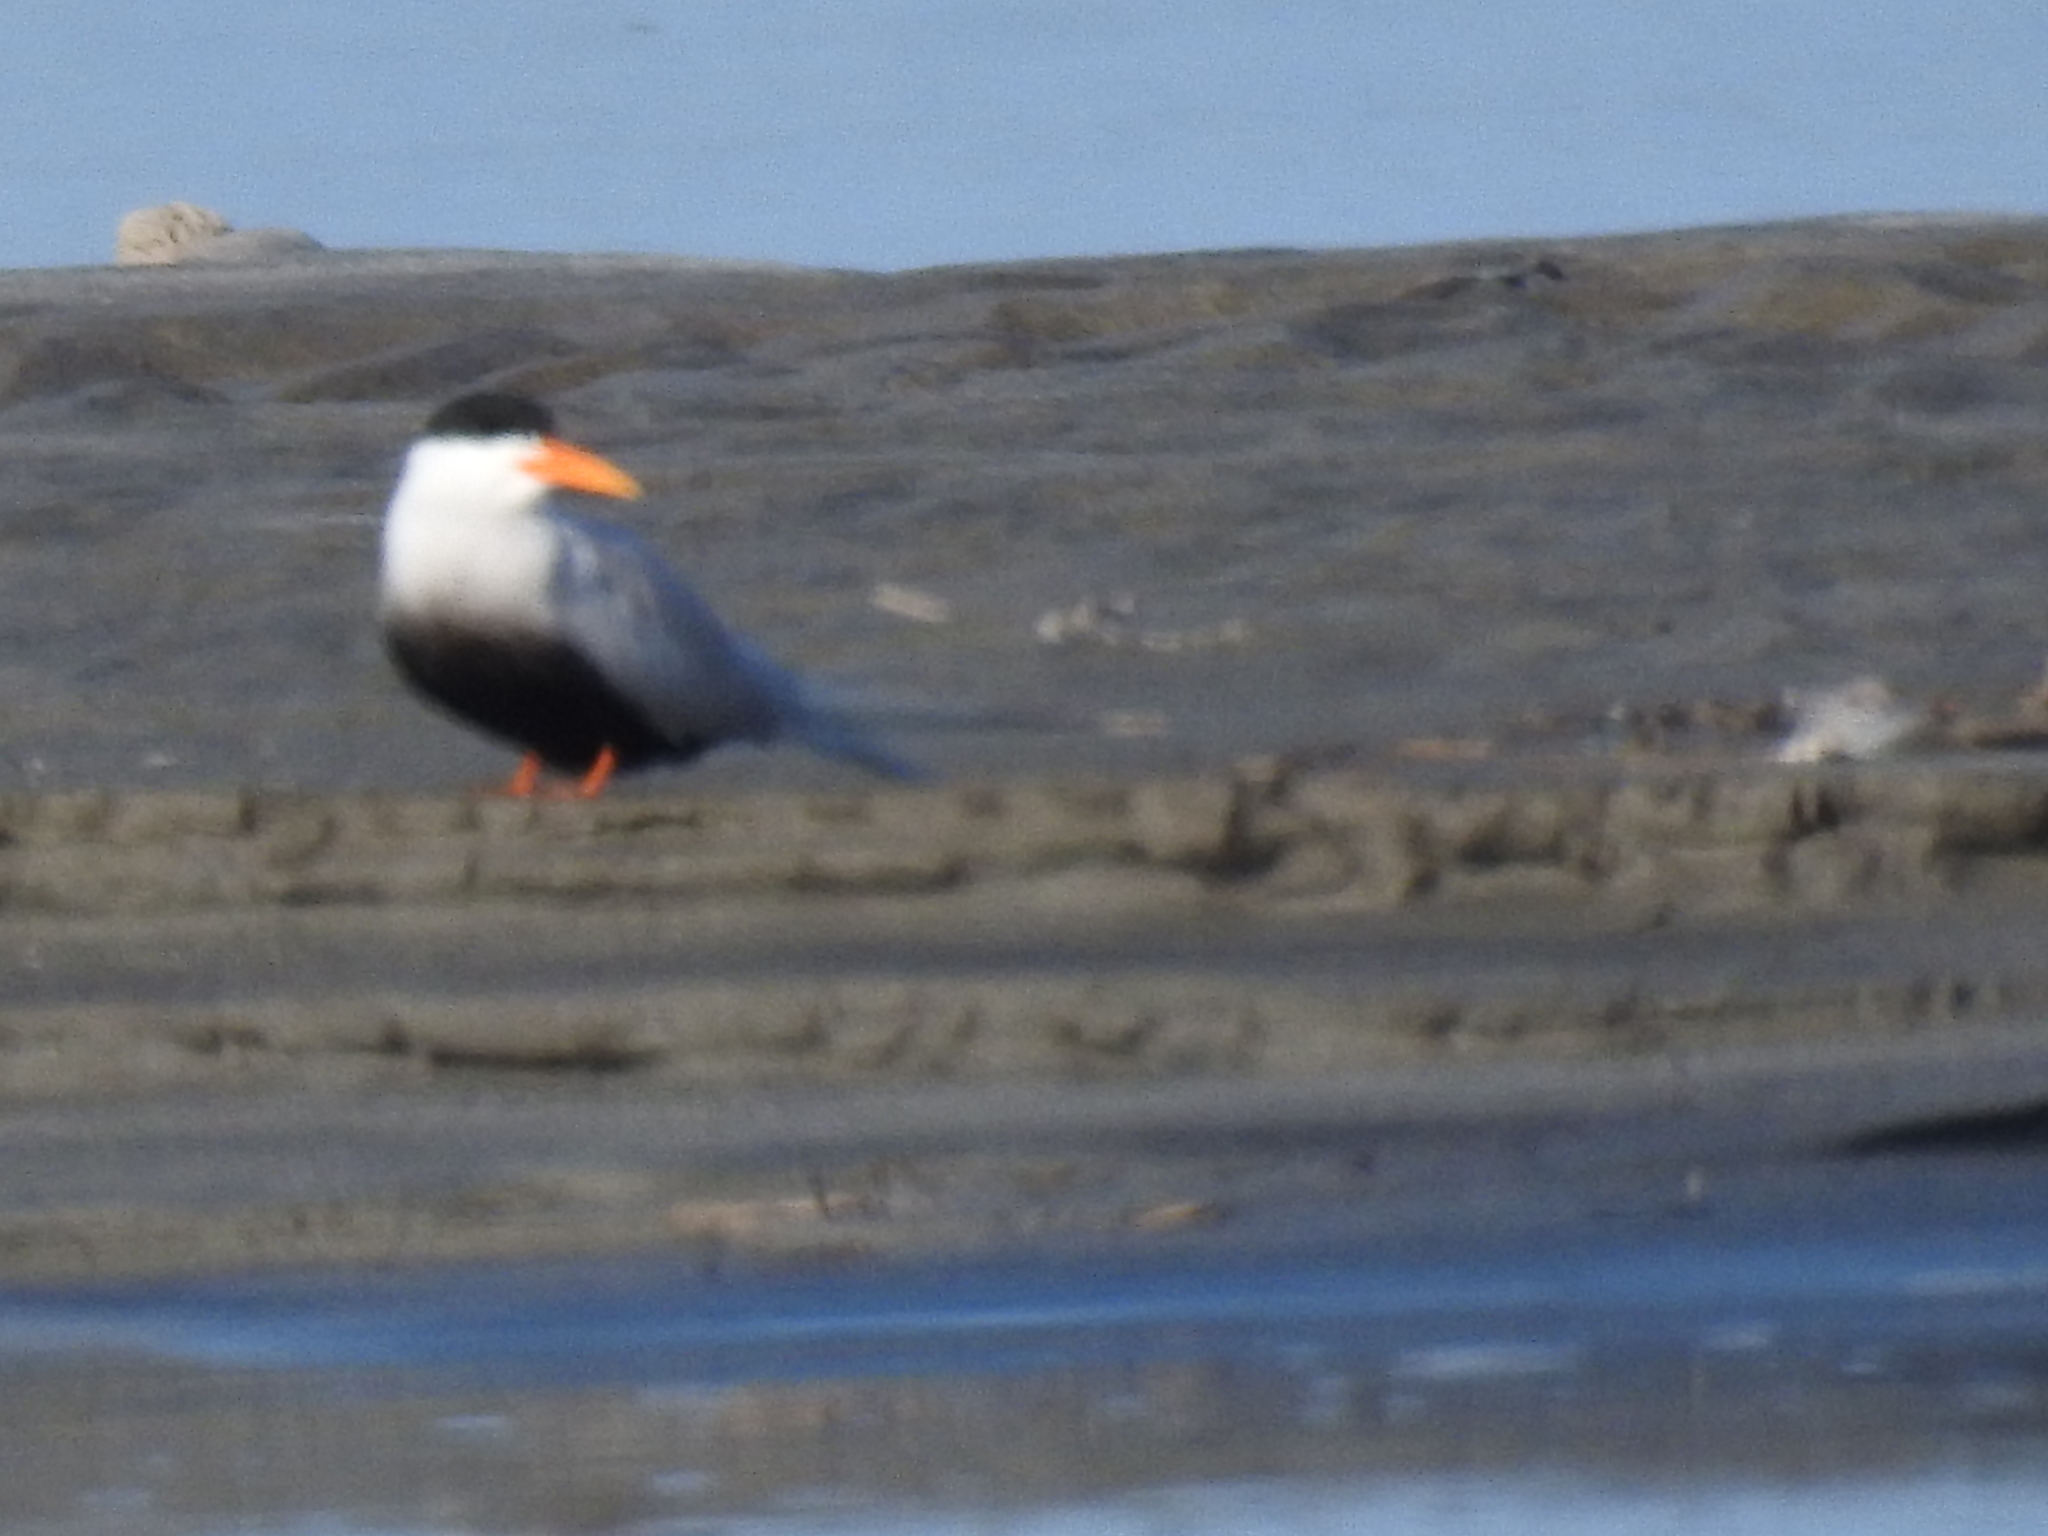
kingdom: Animalia
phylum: Chordata
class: Aves
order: Charadriiformes
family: Laridae
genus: Sterna
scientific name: Sterna acuticauda
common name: Black-bellied tern
